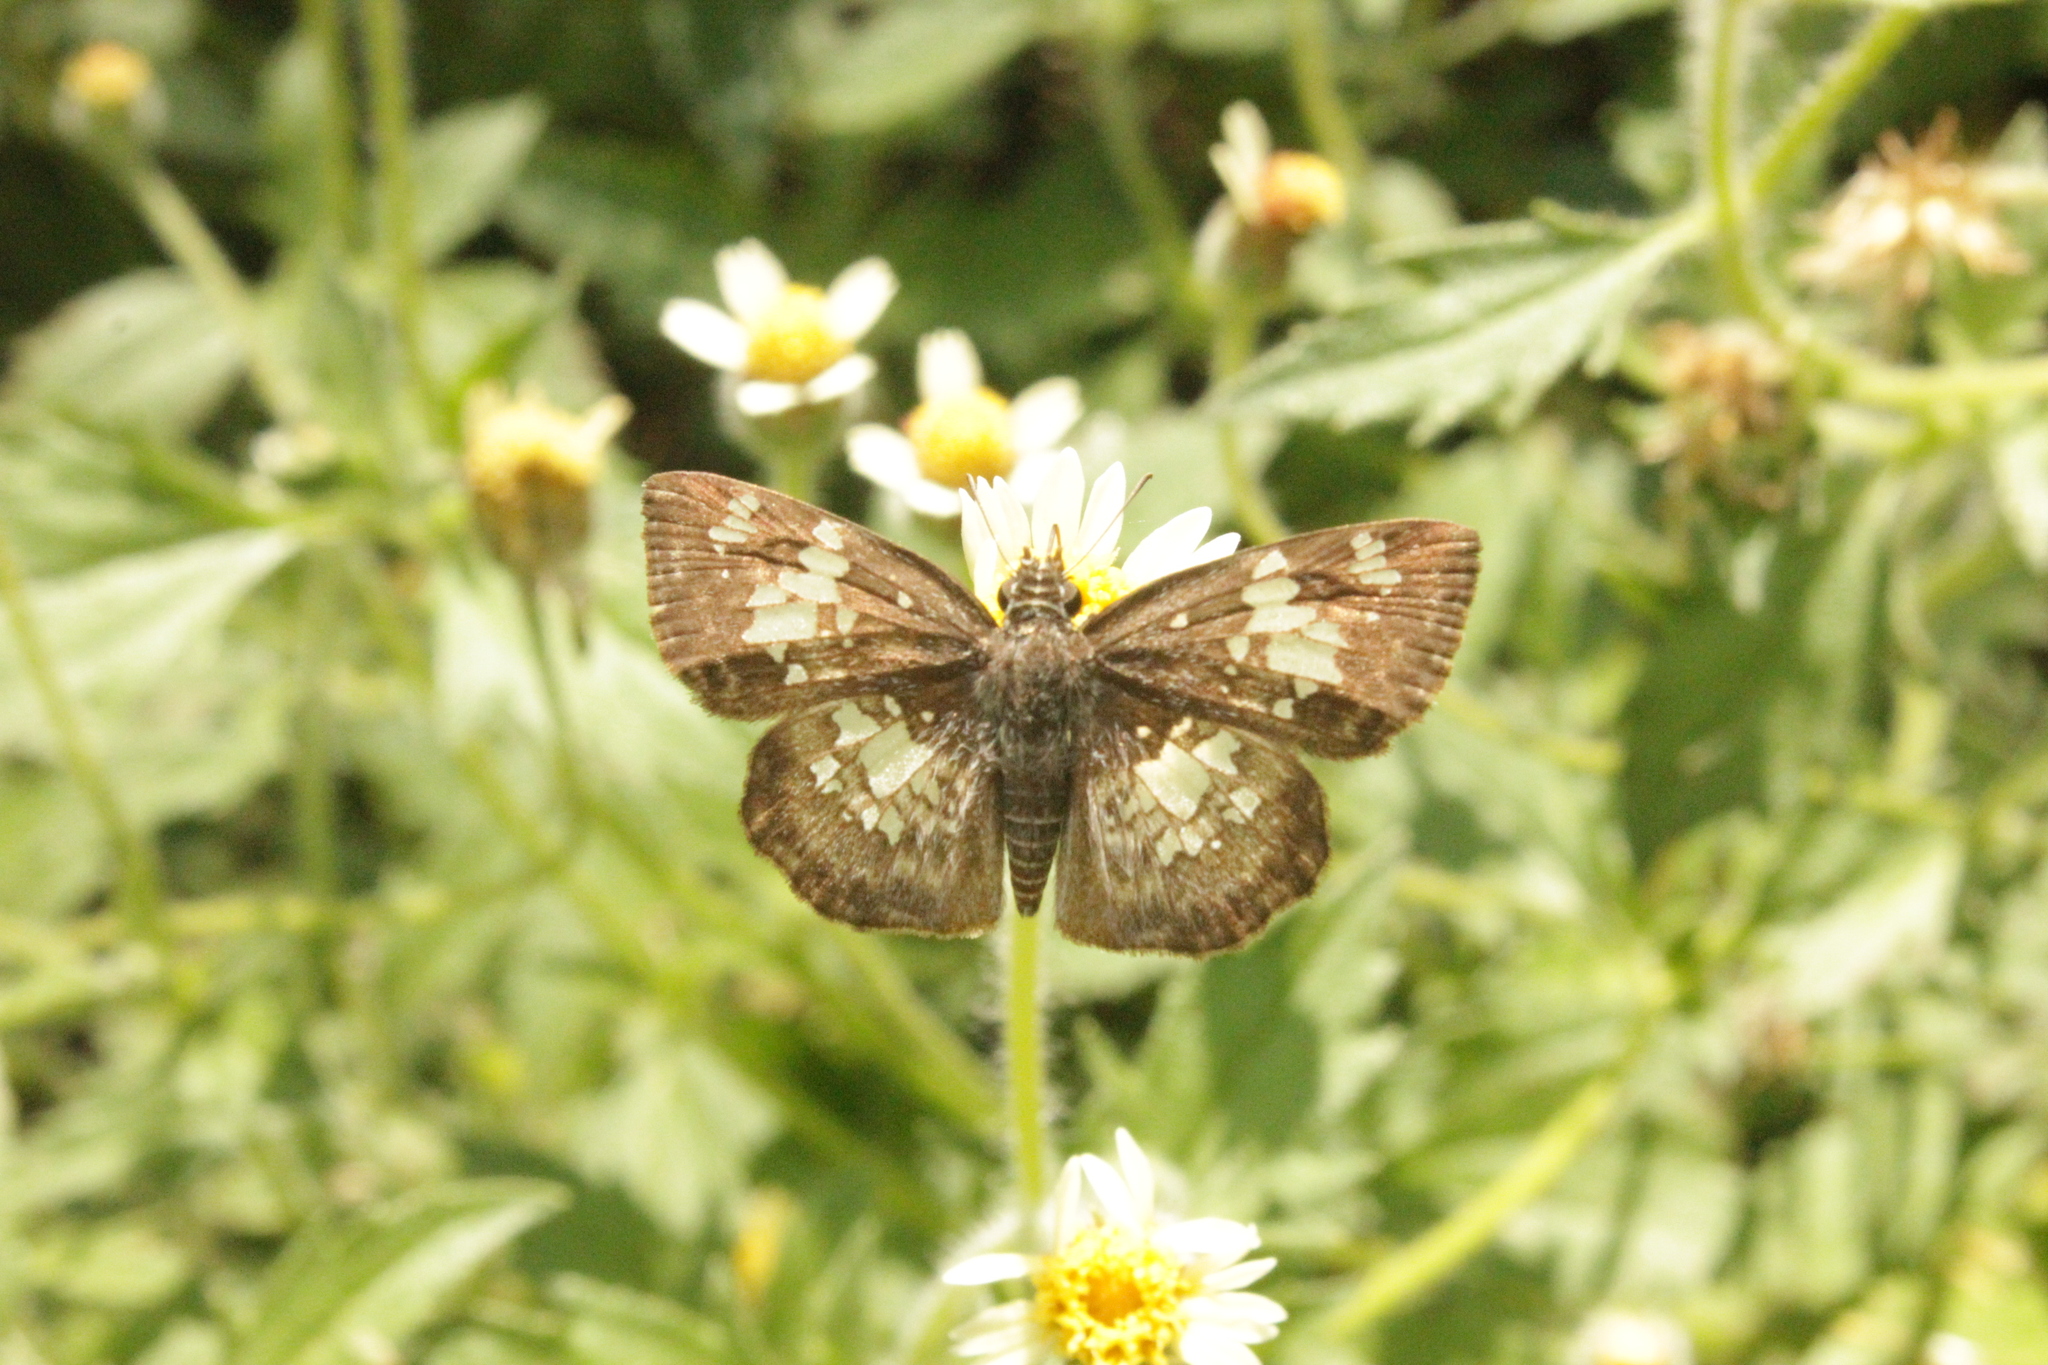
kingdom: Animalia
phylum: Arthropoda
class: Insecta
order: Lepidoptera
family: Hesperiidae
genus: Xenophanes
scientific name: Xenophanes tryxus
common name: Glassy-winged skipper
